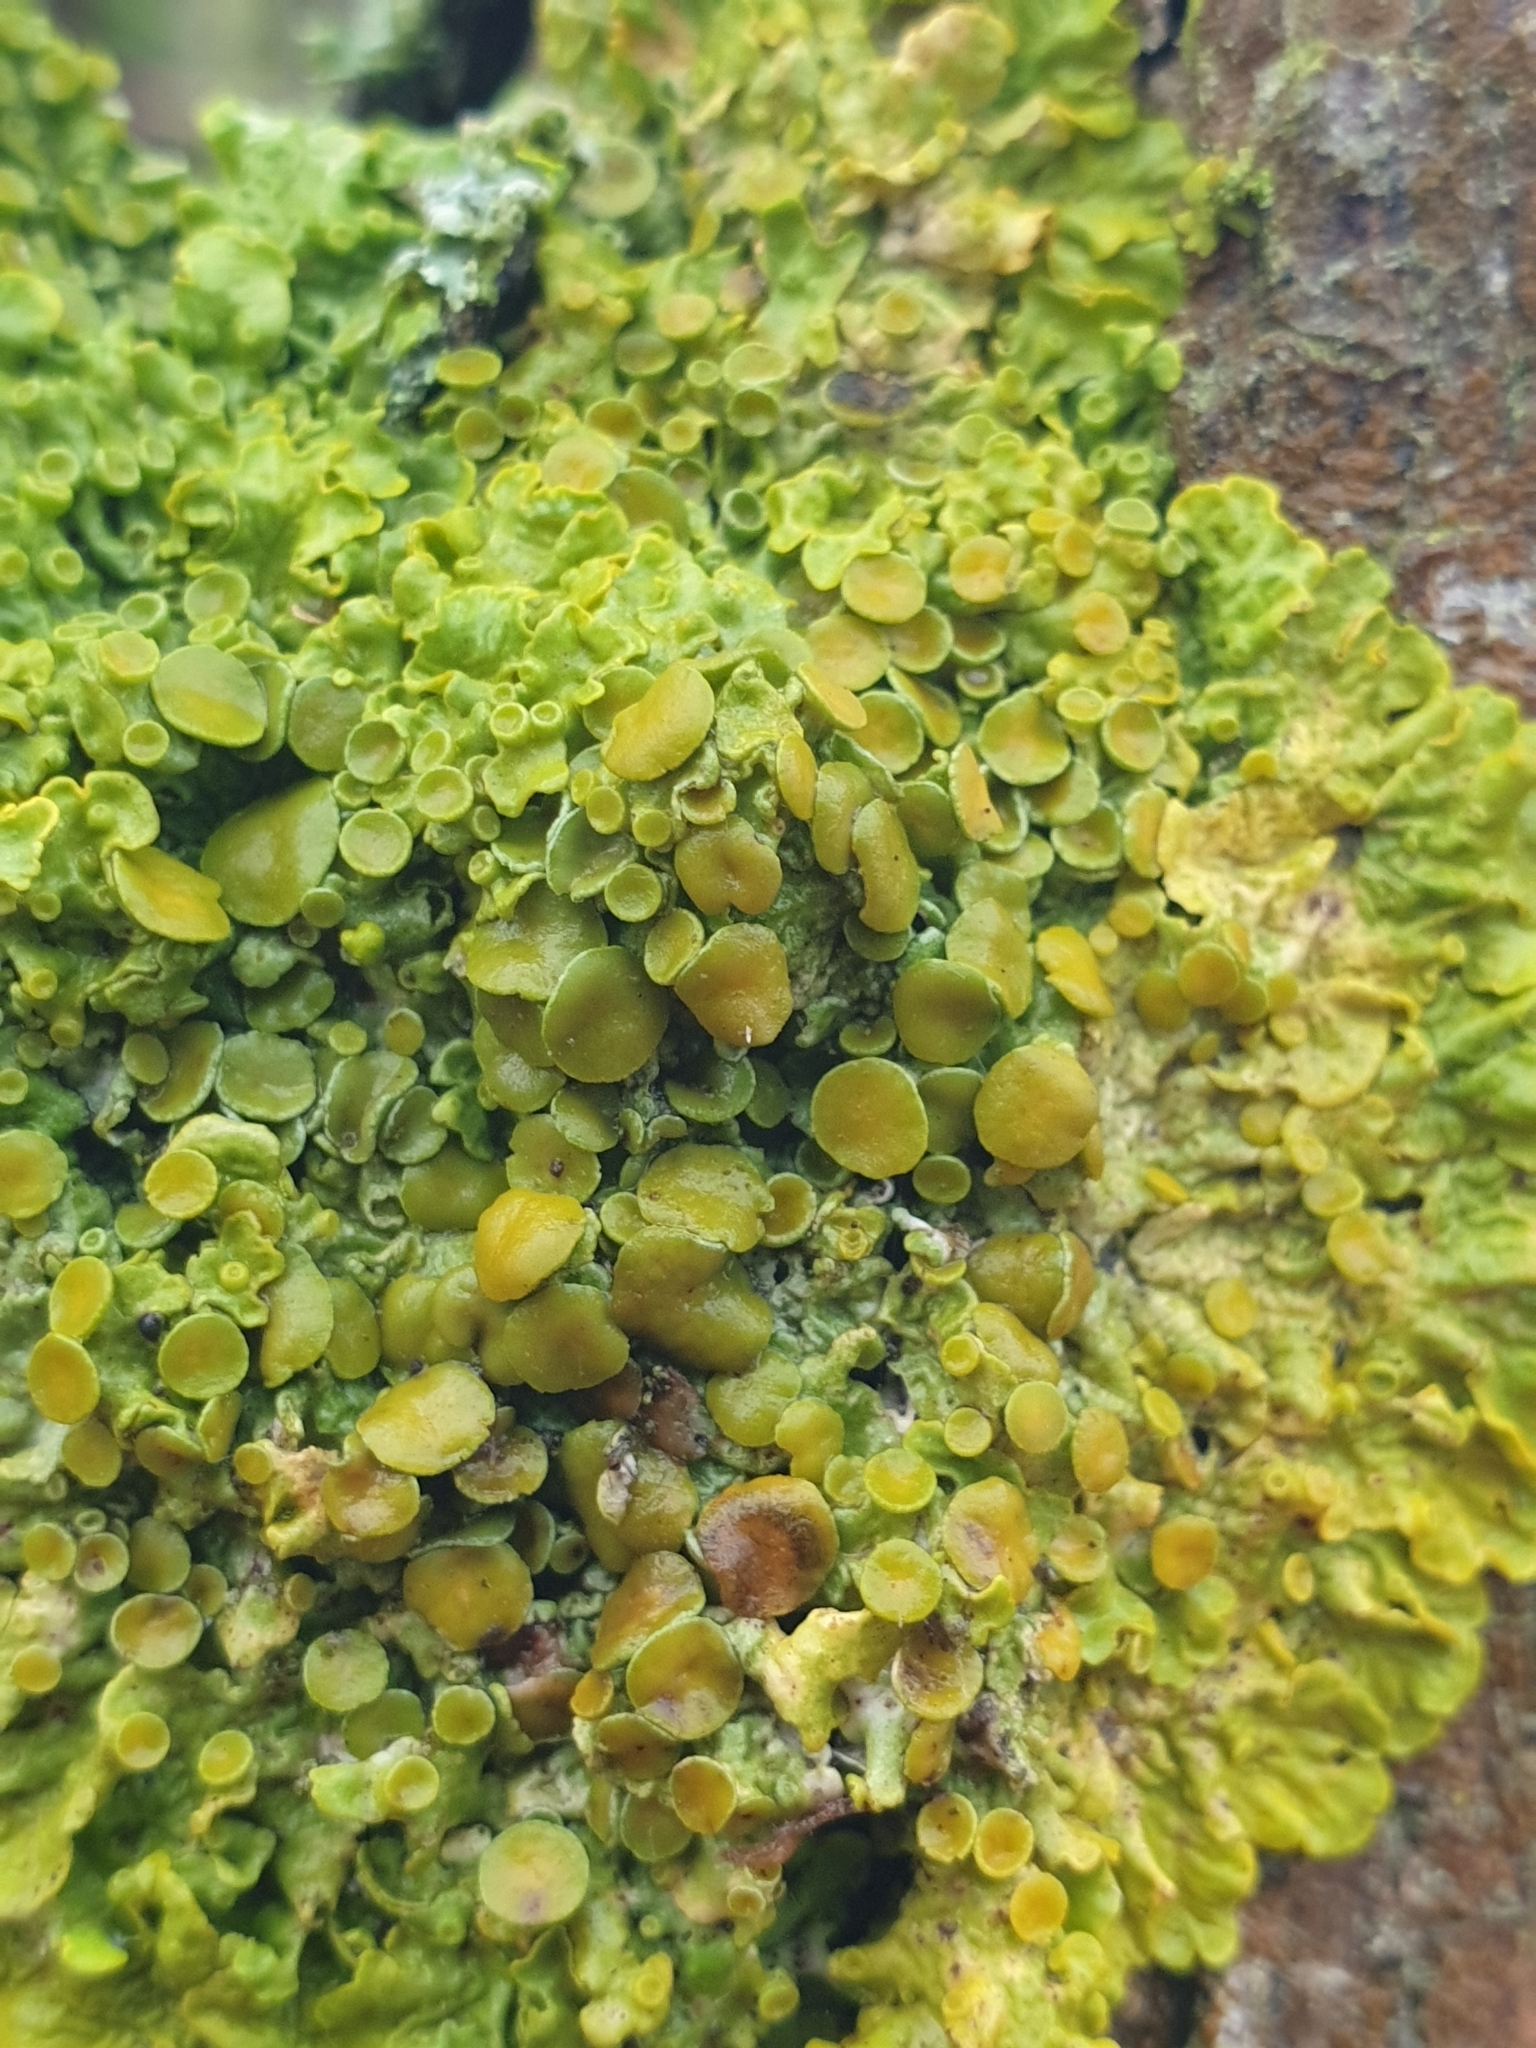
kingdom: Fungi
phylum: Ascomycota
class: Lecanoromycetes
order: Teloschistales
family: Teloschistaceae
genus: Xanthoria
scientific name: Xanthoria parietina
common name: Common orange lichen
